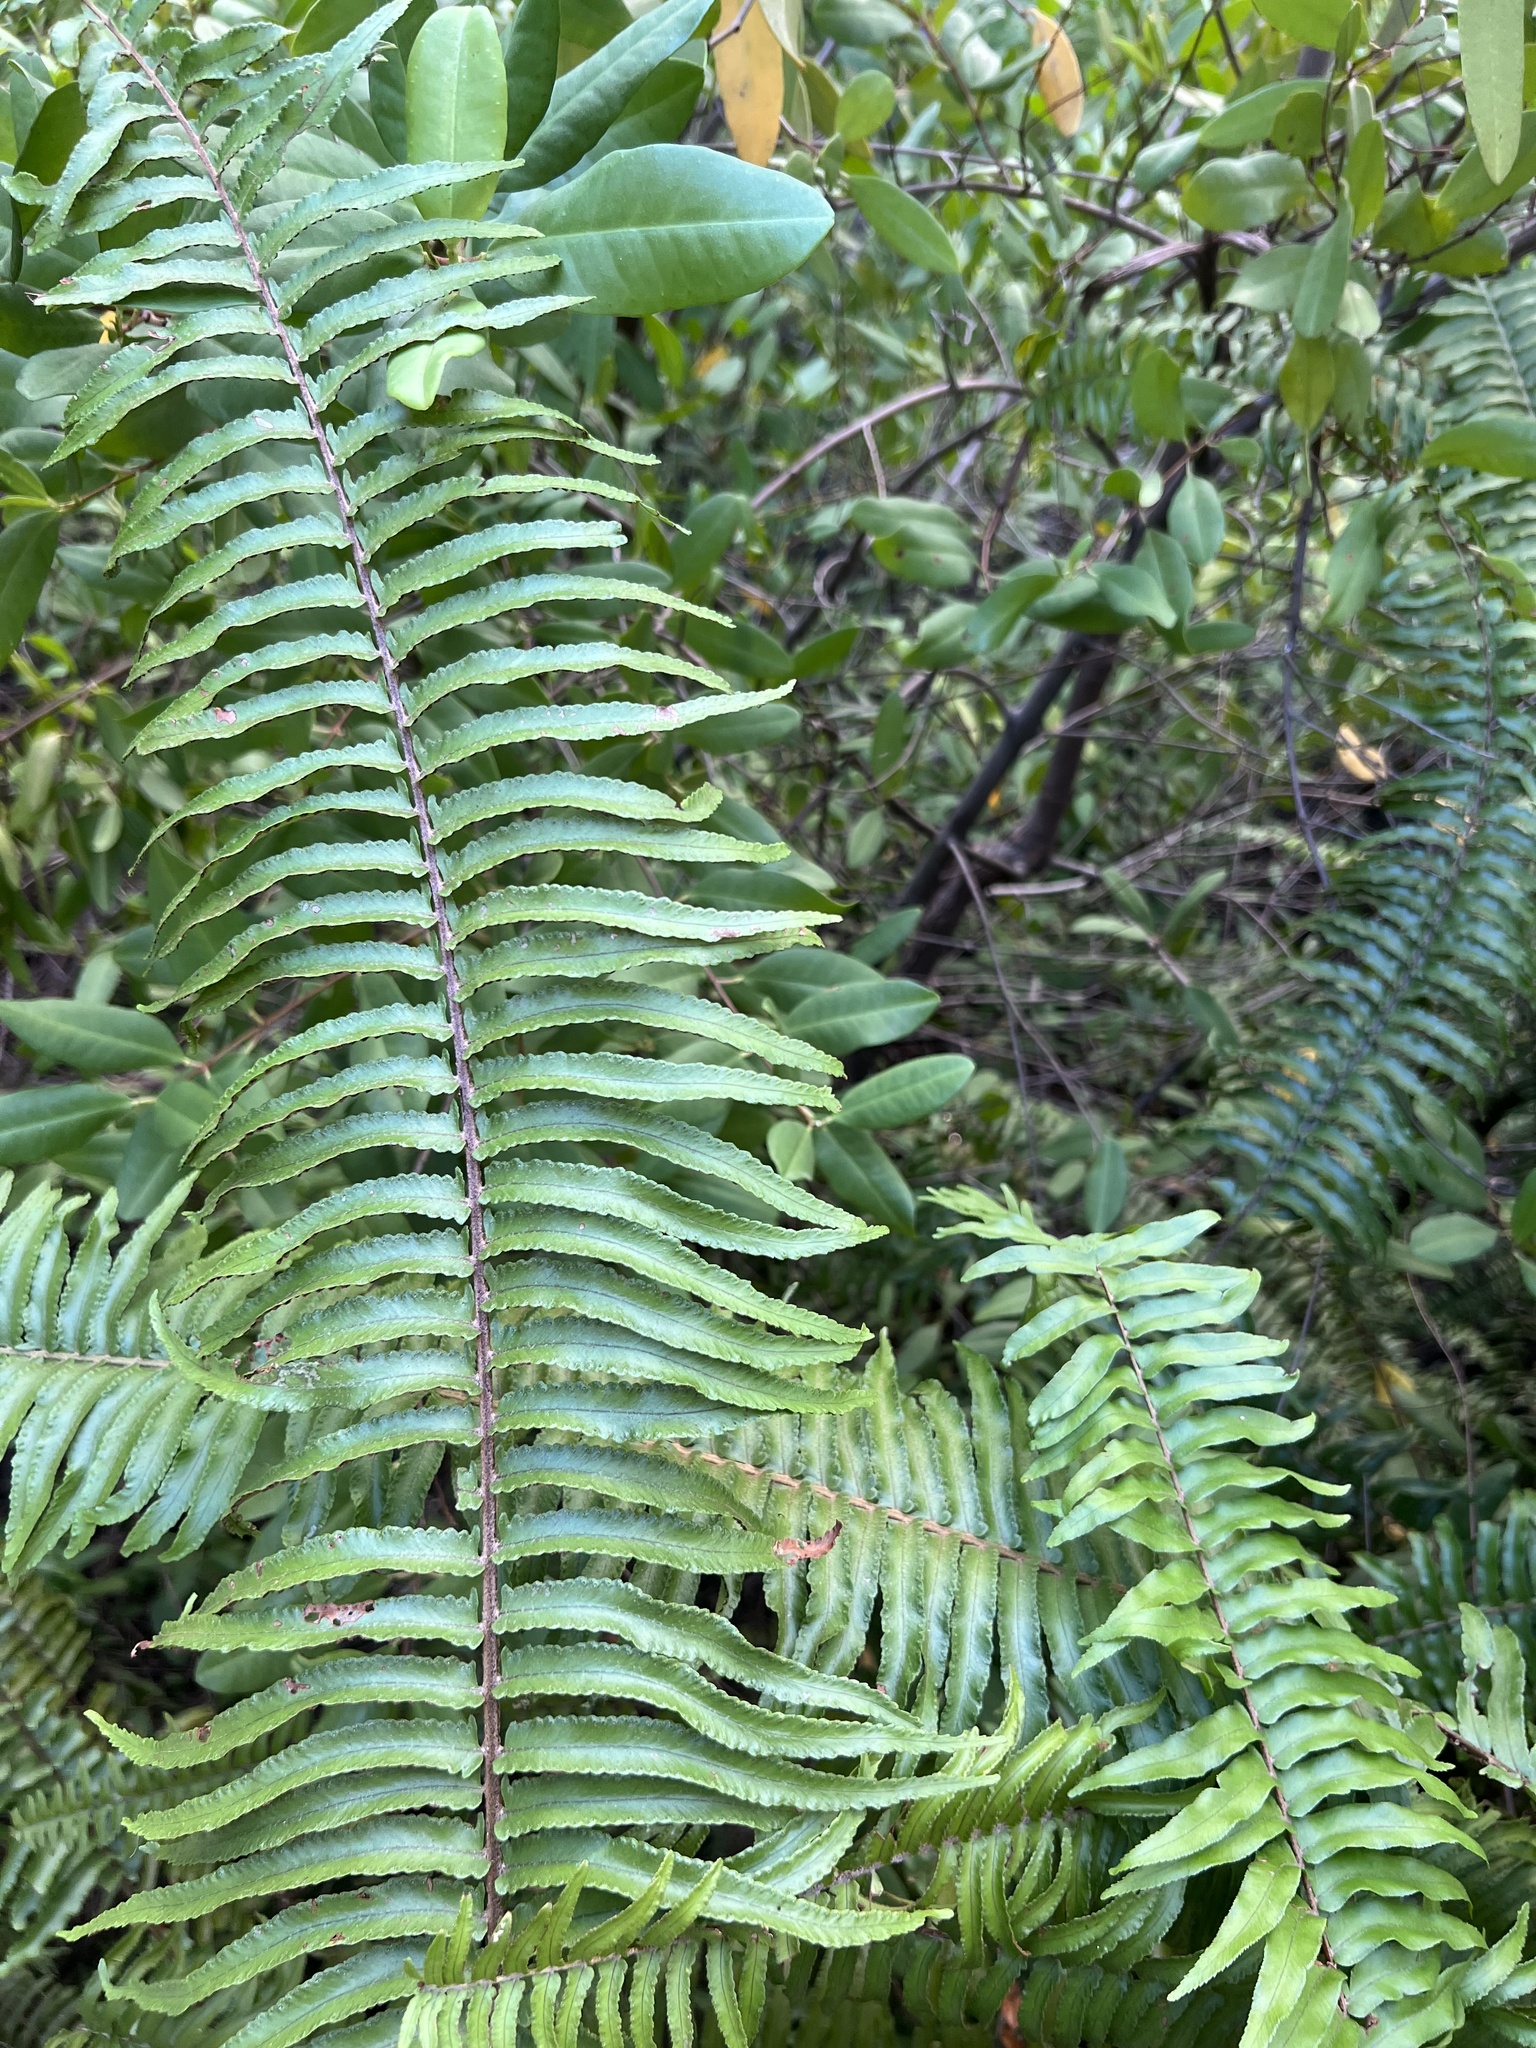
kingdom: Plantae
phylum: Tracheophyta
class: Polypodiopsida
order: Polypodiales
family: Nephrolepidaceae
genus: Nephrolepis
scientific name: Nephrolepis brownii
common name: Asian swordfern
